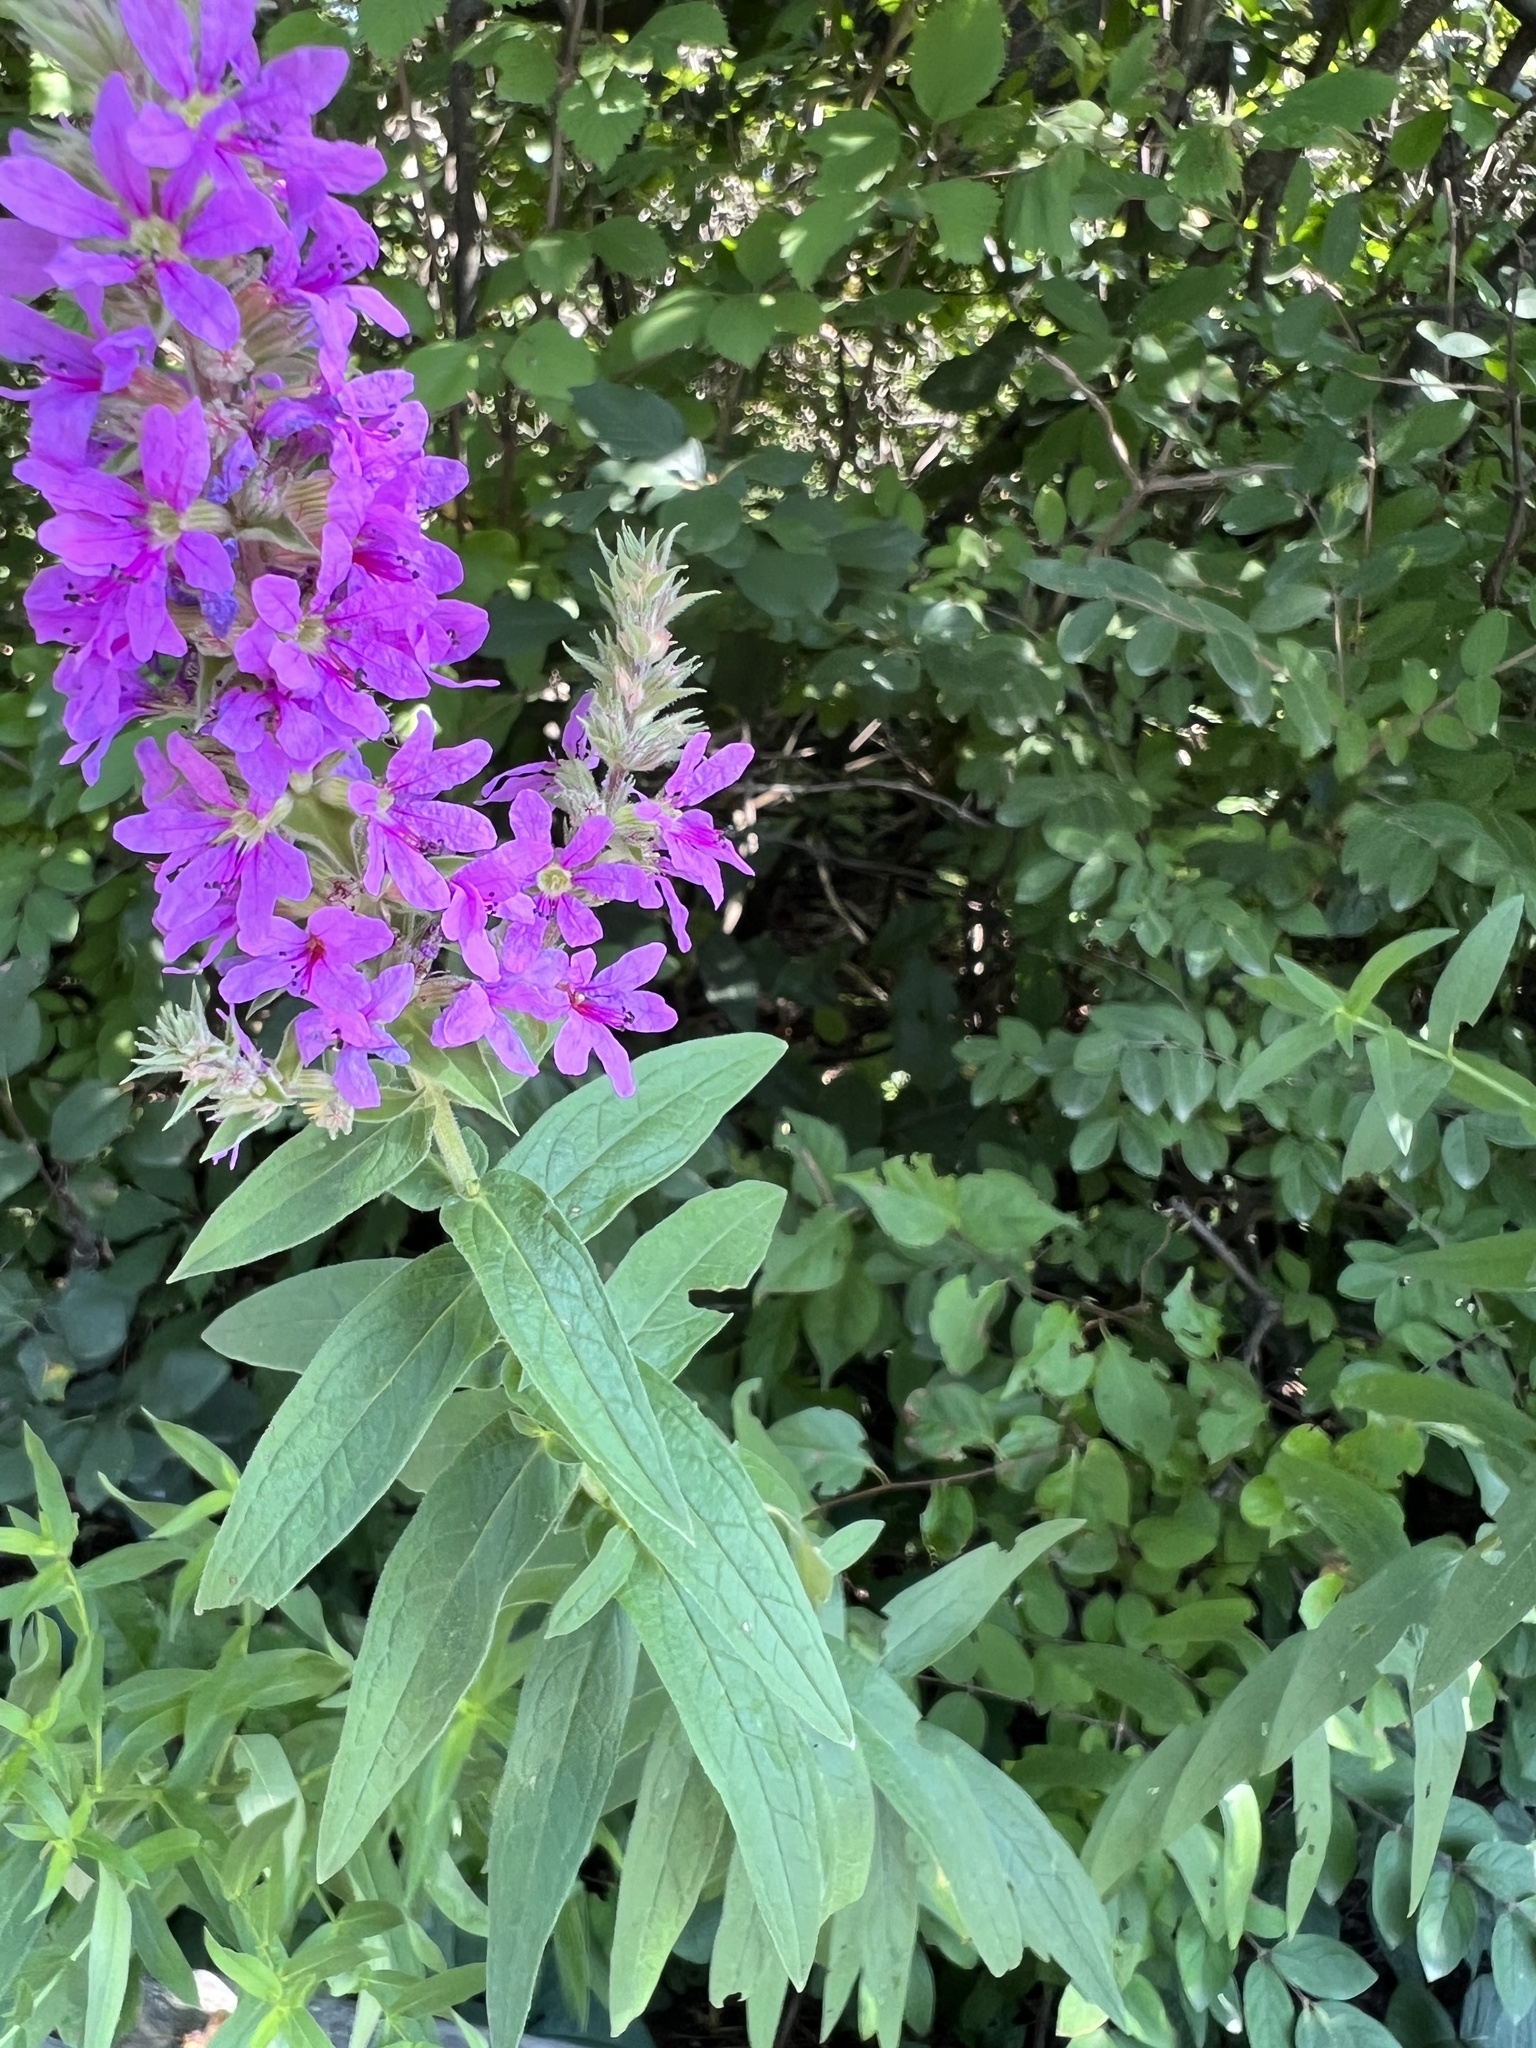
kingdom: Plantae
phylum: Tracheophyta
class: Magnoliopsida
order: Myrtales
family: Lythraceae
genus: Lythrum
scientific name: Lythrum salicaria
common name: Purple loosestrife
